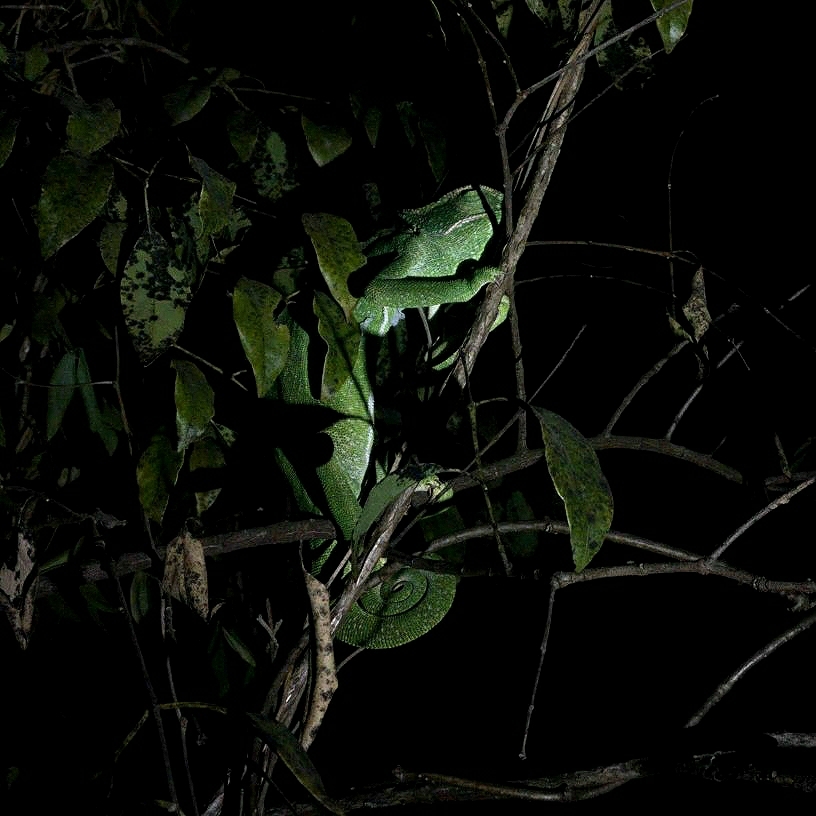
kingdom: Animalia
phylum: Chordata
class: Squamata
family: Chamaeleonidae
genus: Chamaeleo
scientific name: Chamaeleo zeylanicus
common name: Indian chameleon
